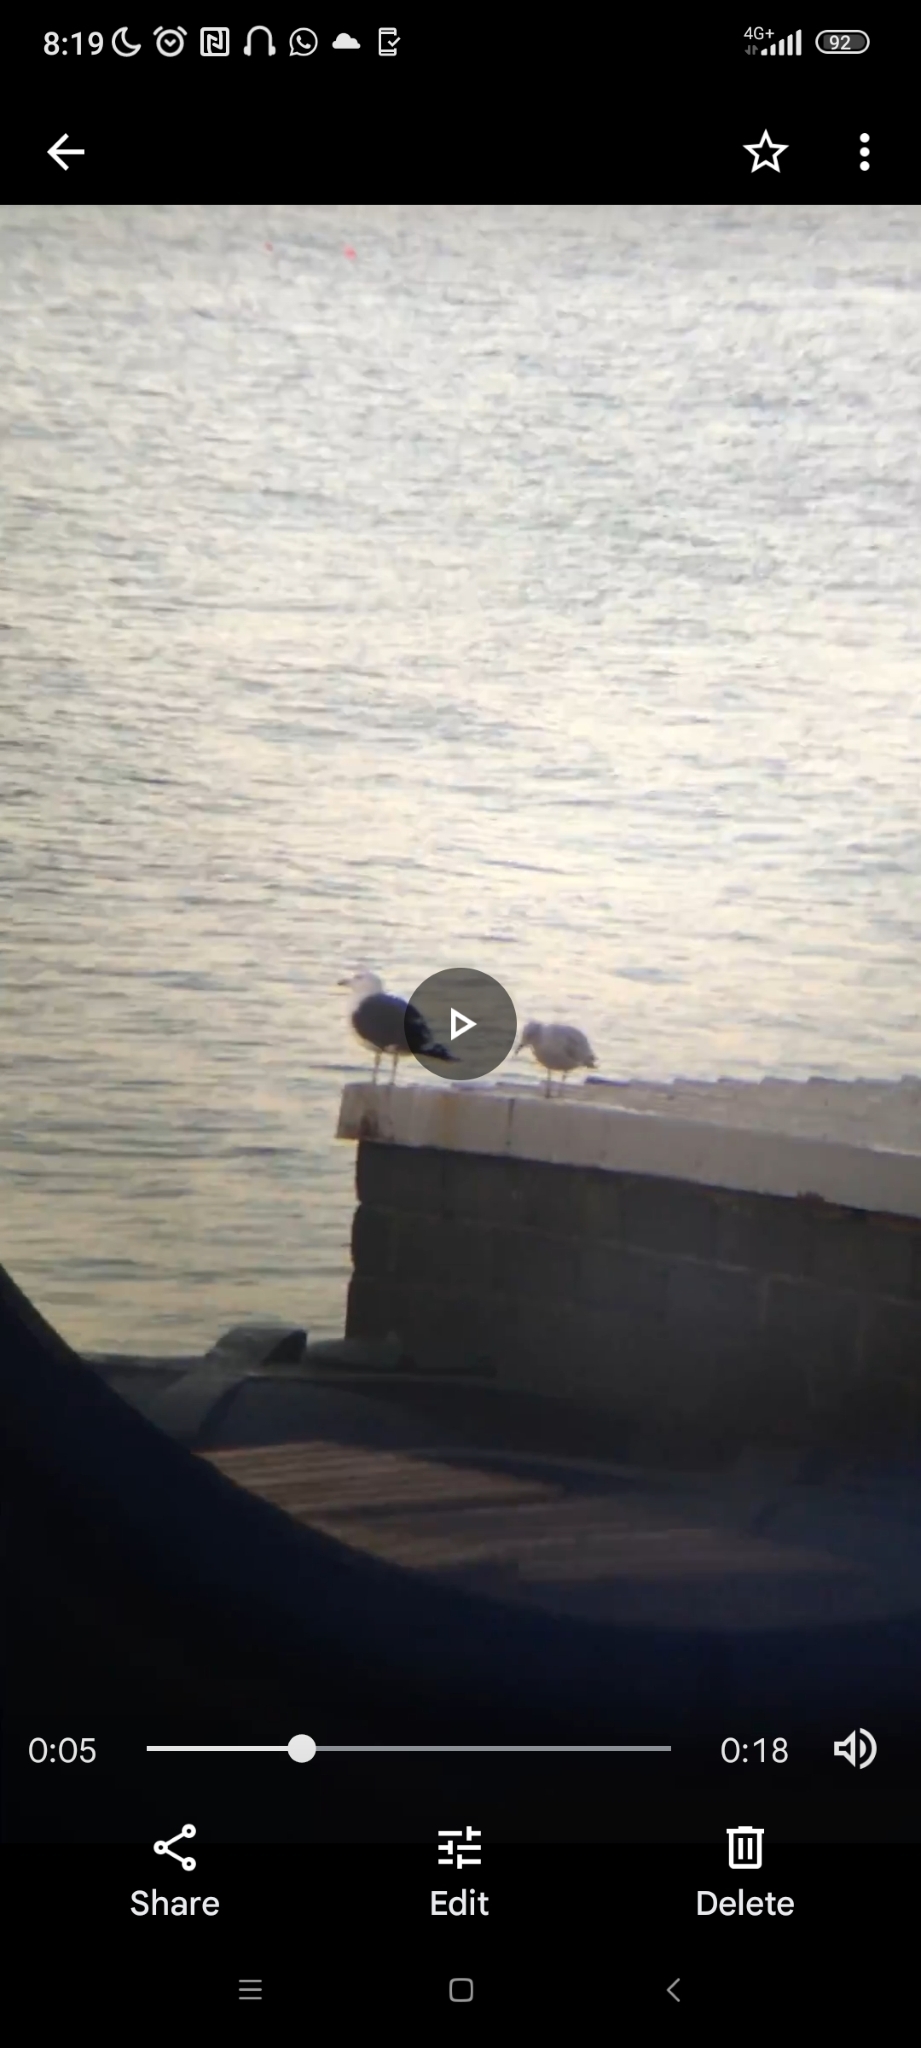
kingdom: Animalia
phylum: Chordata
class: Aves
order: Charadriiformes
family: Laridae
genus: Larus
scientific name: Larus marinus
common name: Great black-backed gull
